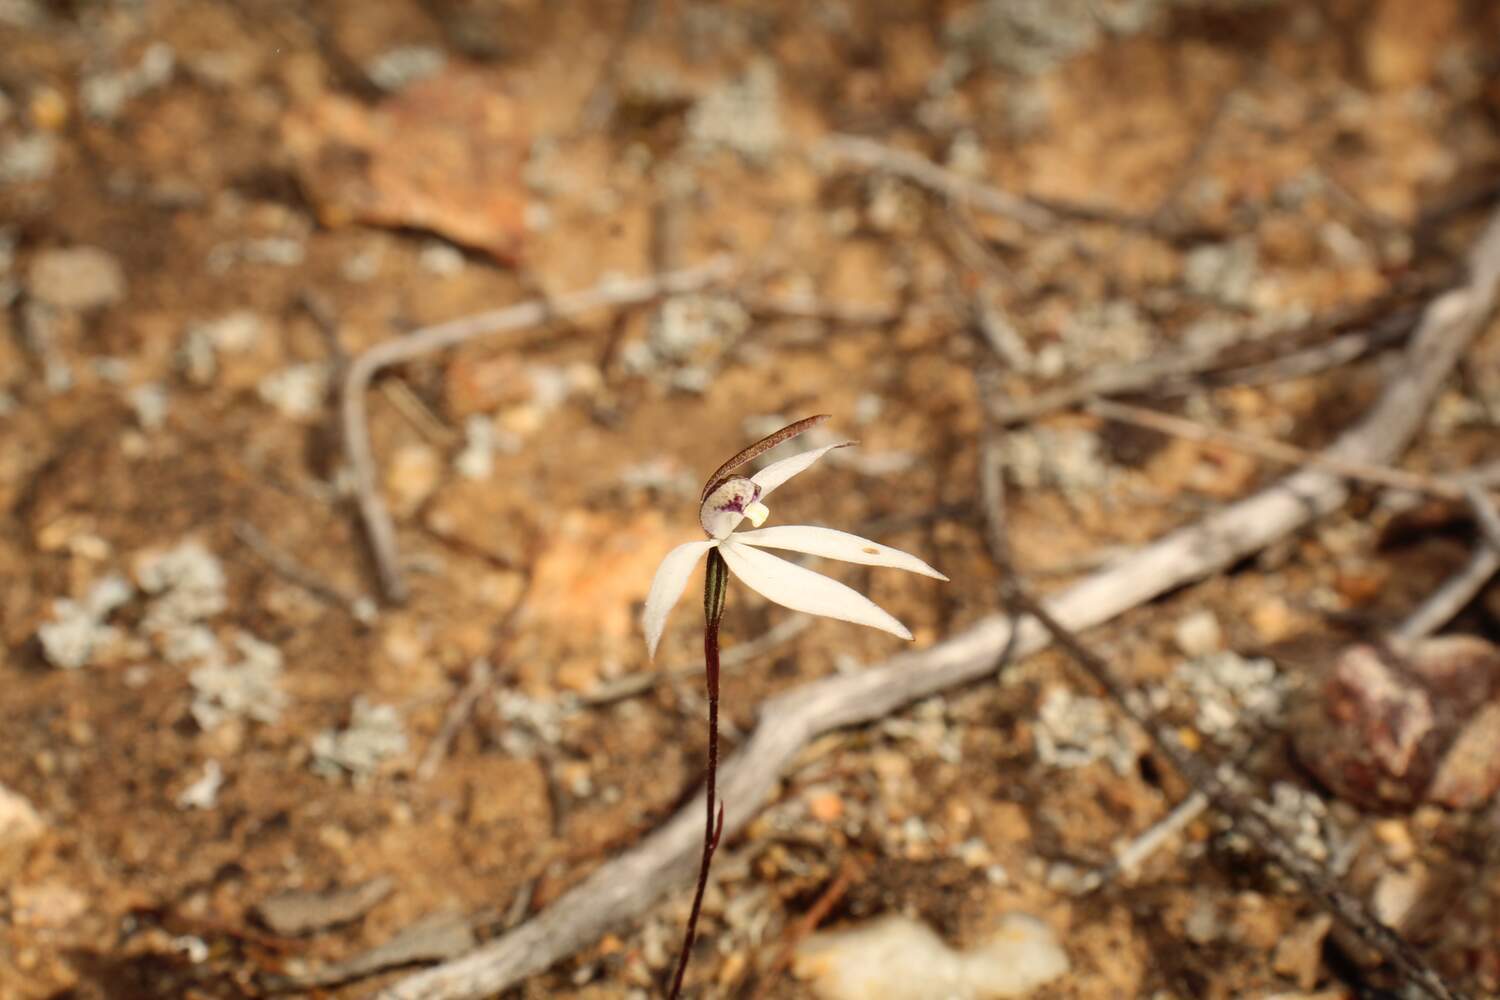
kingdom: Plantae
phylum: Tracheophyta
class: Liliopsida
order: Asparagales
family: Orchidaceae
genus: Caladenia
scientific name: Caladenia saccharata
